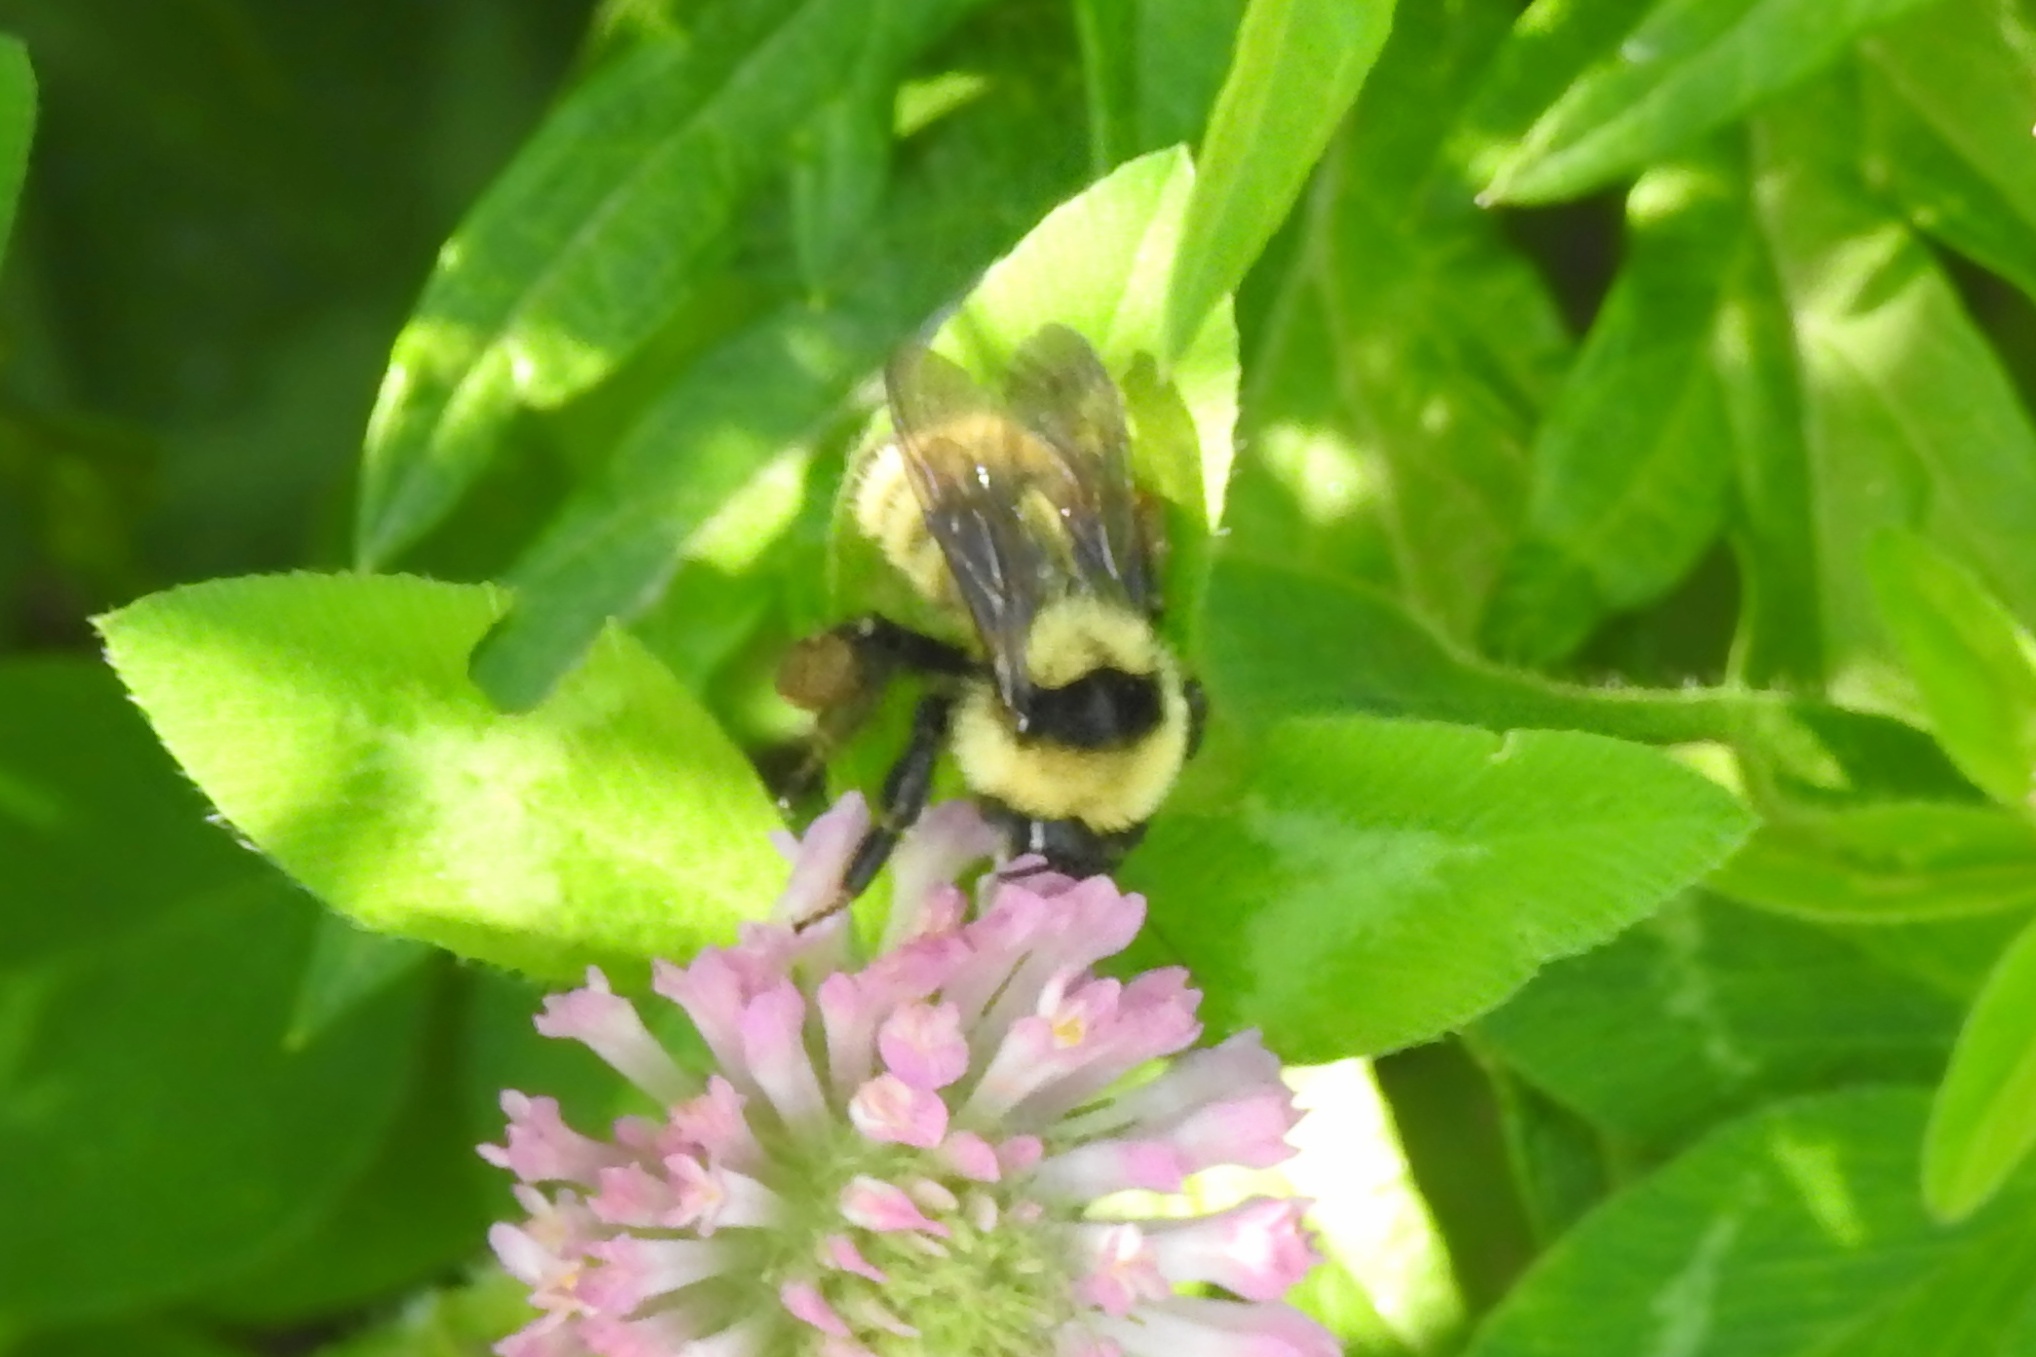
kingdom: Animalia
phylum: Arthropoda
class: Insecta
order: Hymenoptera
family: Apidae
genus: Bombus
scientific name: Bombus fervidus
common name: Yellow bumble bee
